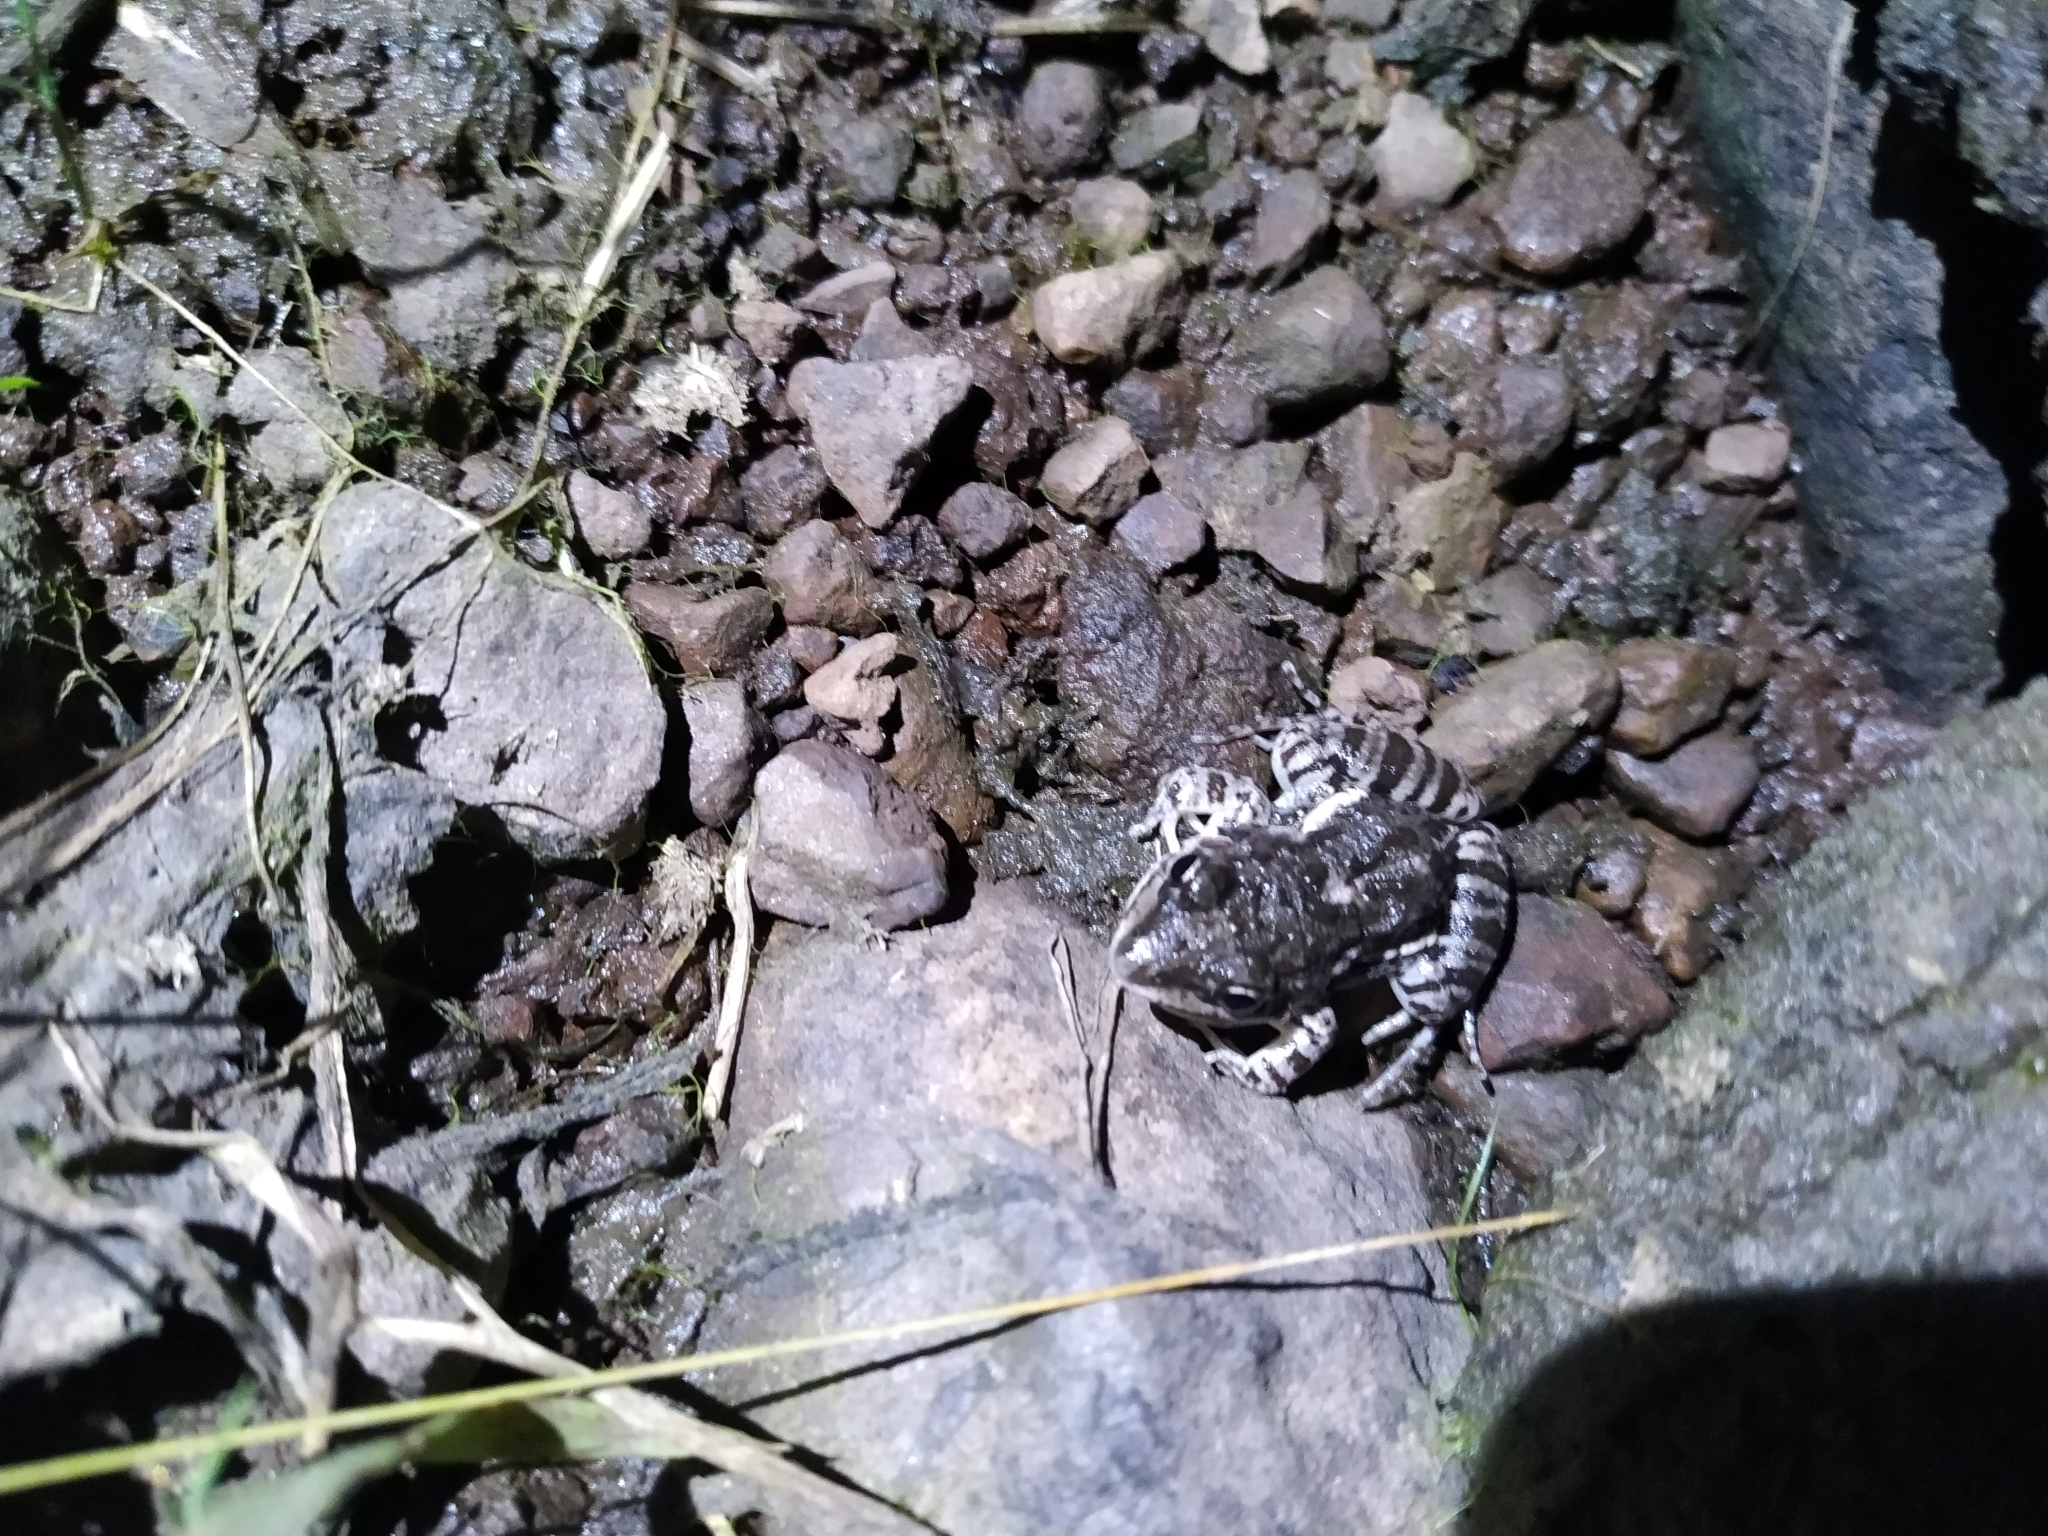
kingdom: Animalia
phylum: Chordata
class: Amphibia
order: Anura
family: Leptodactylidae
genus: Leptodactylus
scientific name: Leptodactylus latinasus
